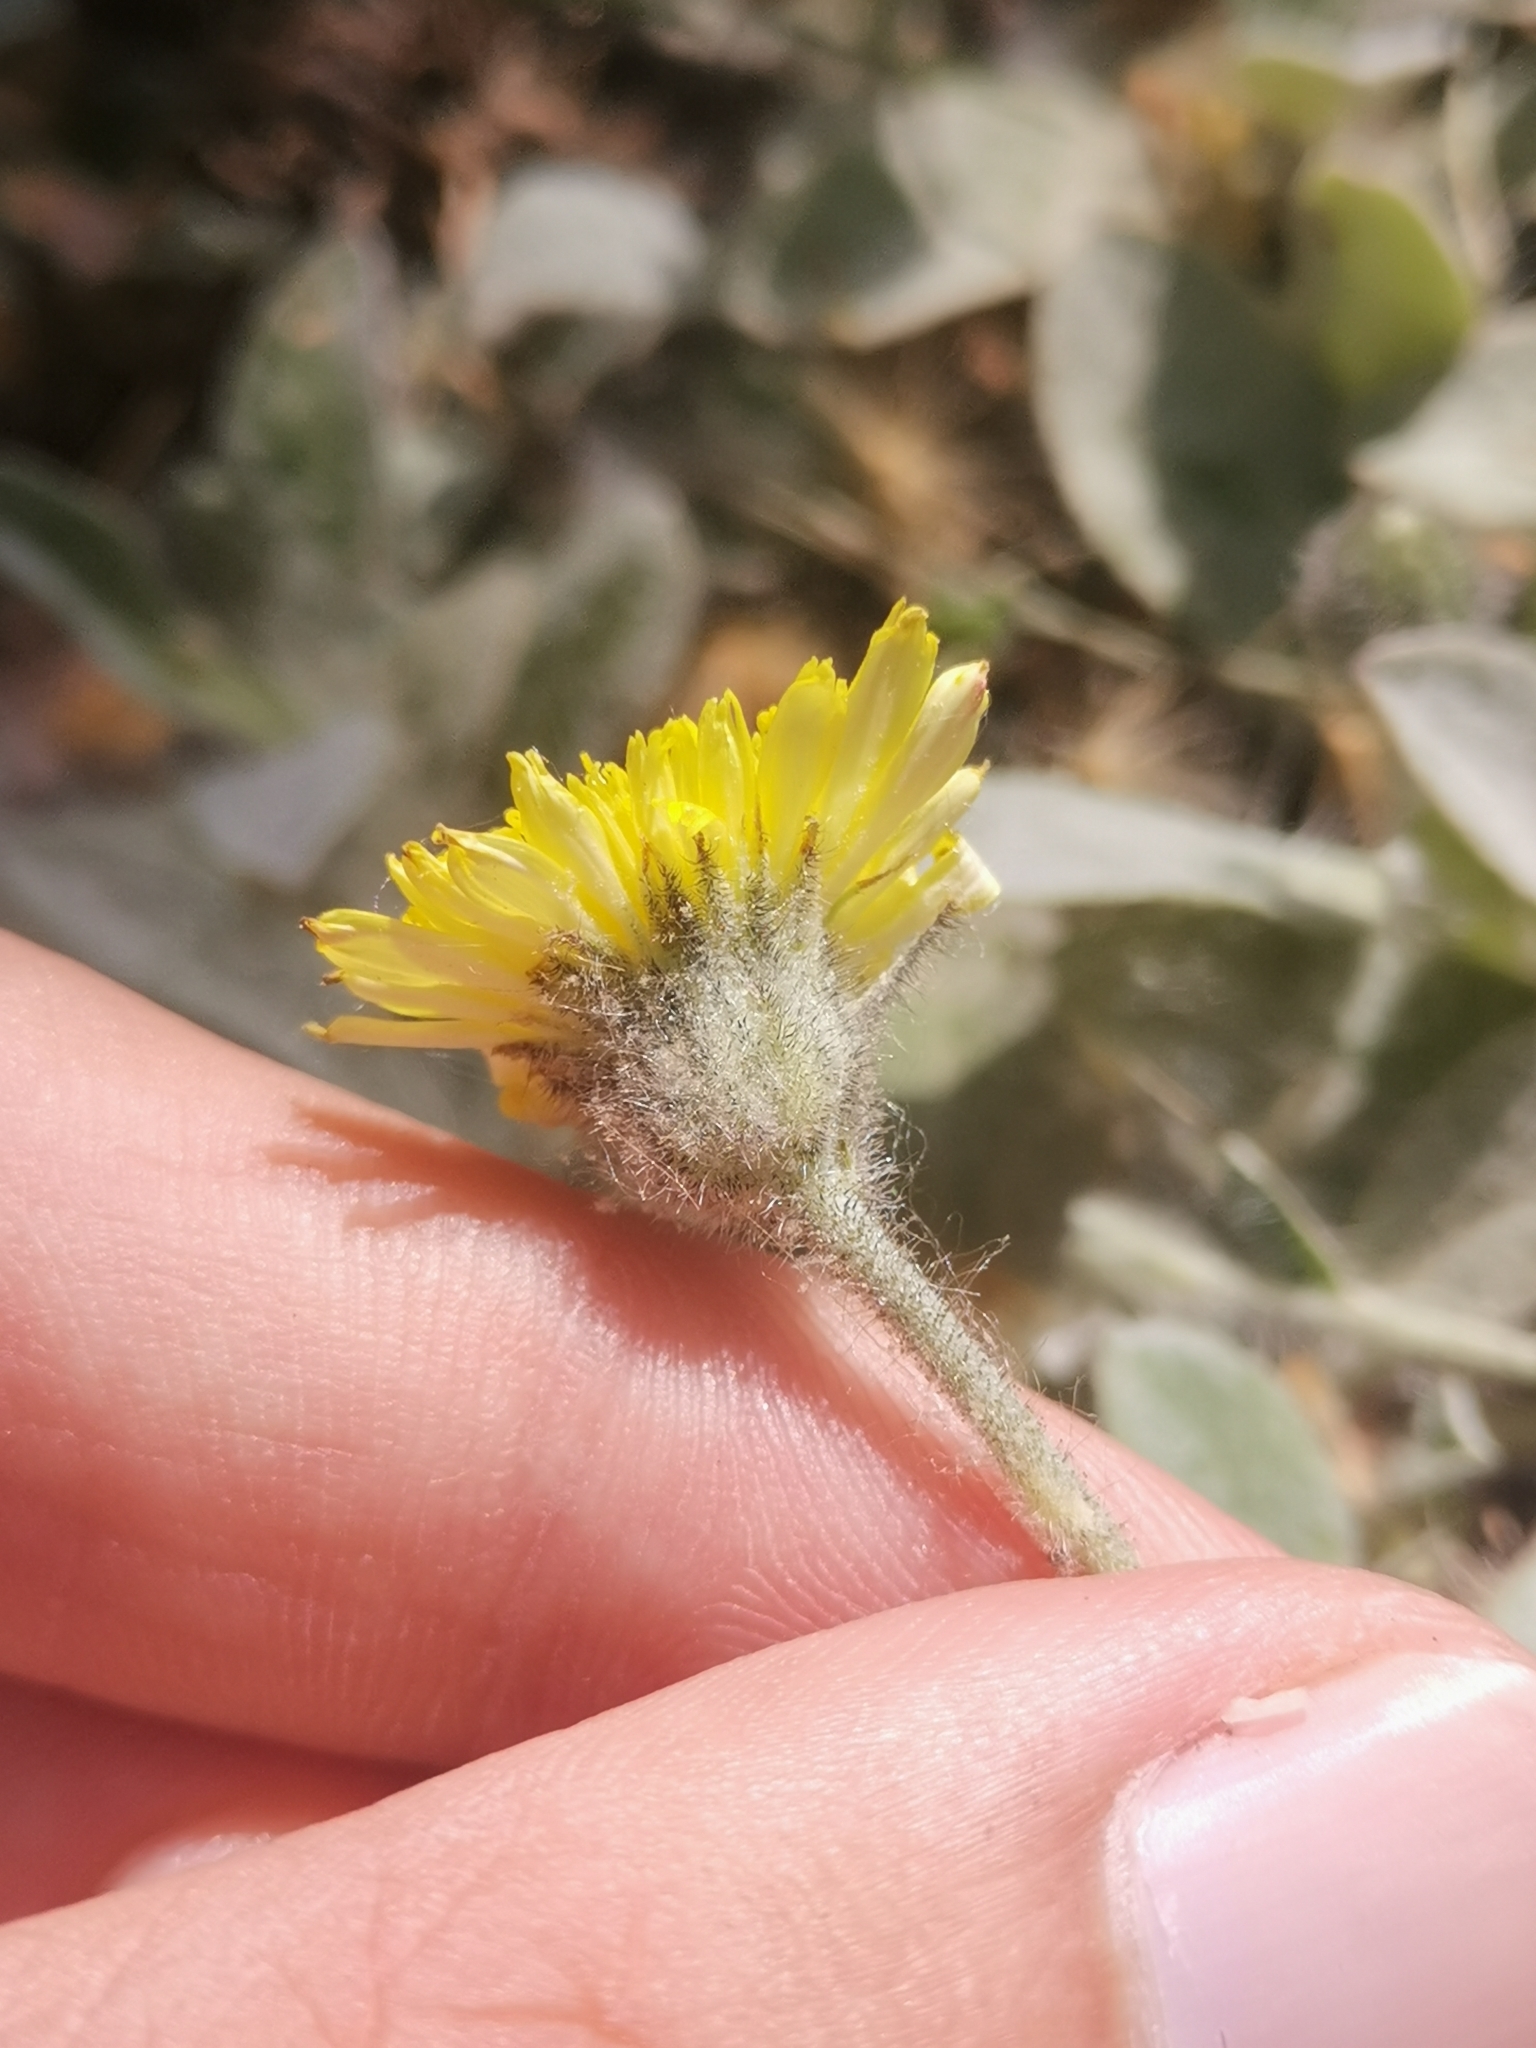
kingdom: Plantae
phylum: Tracheophyta
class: Magnoliopsida
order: Asterales
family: Asteraceae
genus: Pilosella
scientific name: Pilosella officinarum
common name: Mouse-ear hawkweed
